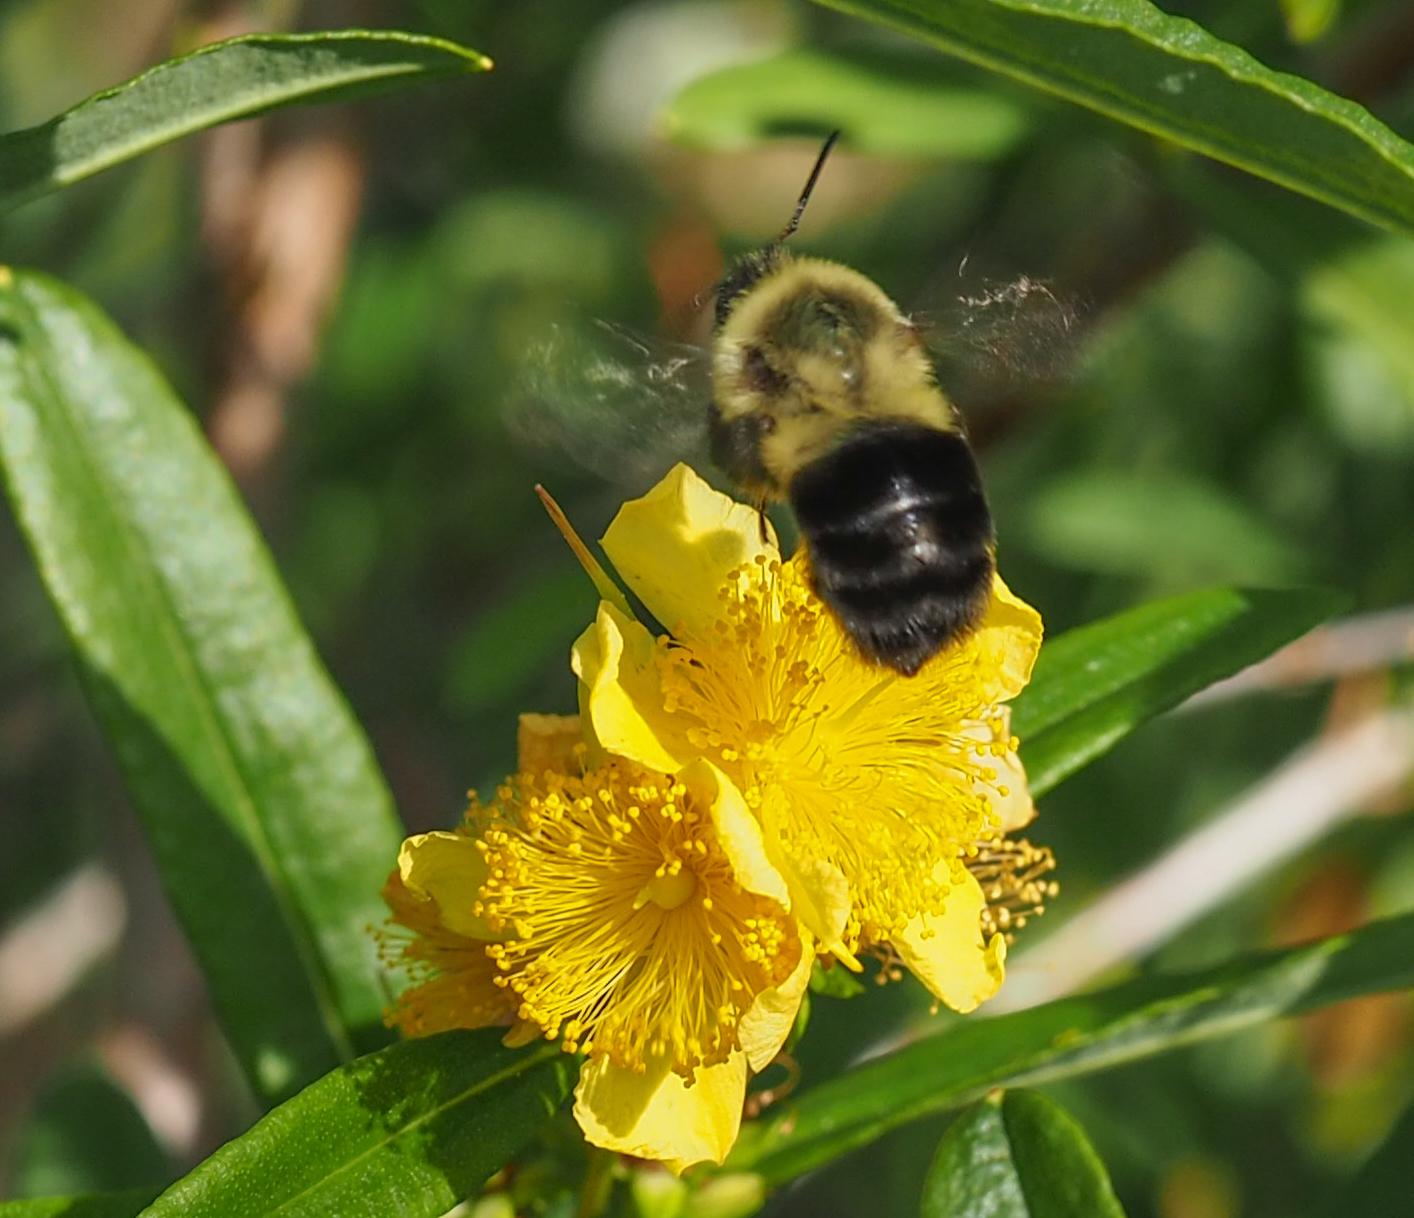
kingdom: Animalia
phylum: Arthropoda
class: Insecta
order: Hymenoptera
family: Apidae
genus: Bombus
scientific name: Bombus impatiens
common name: Common eastern bumble bee
